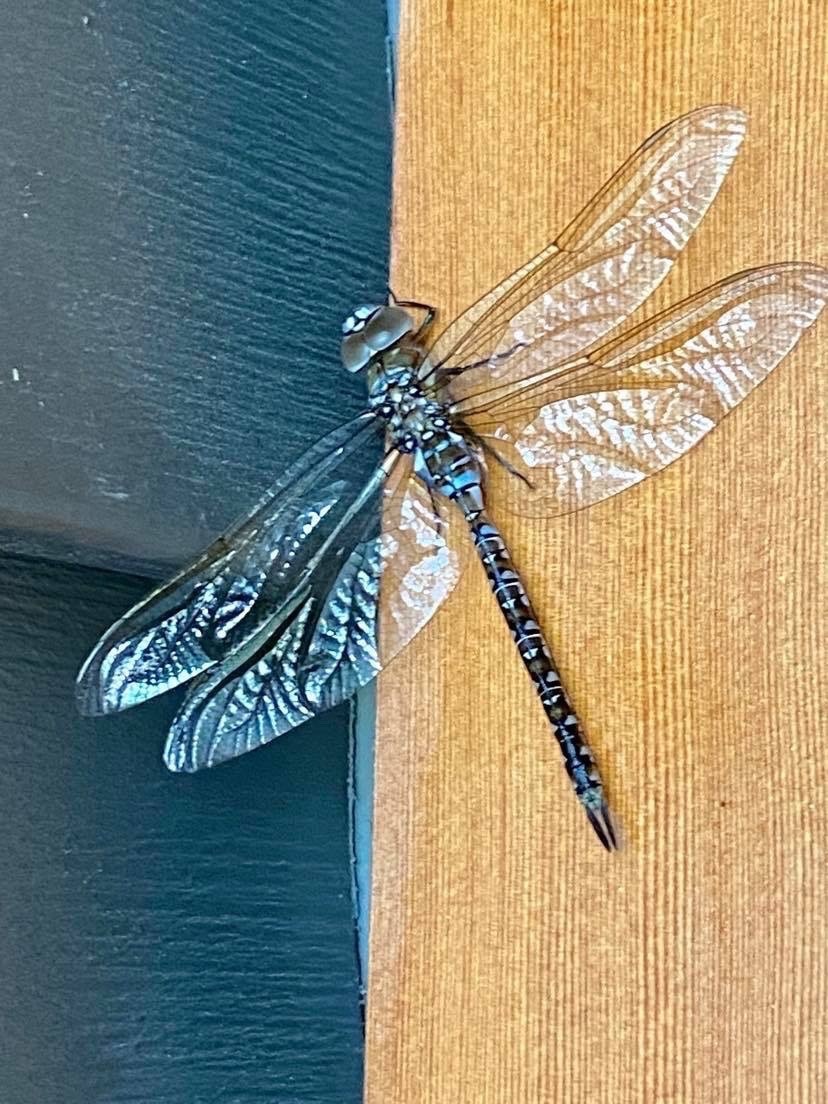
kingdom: Animalia
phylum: Arthropoda
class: Insecta
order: Odonata
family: Aeshnidae
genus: Rhionaeschna
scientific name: Rhionaeschna multicolor
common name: Blue-eyed darner
